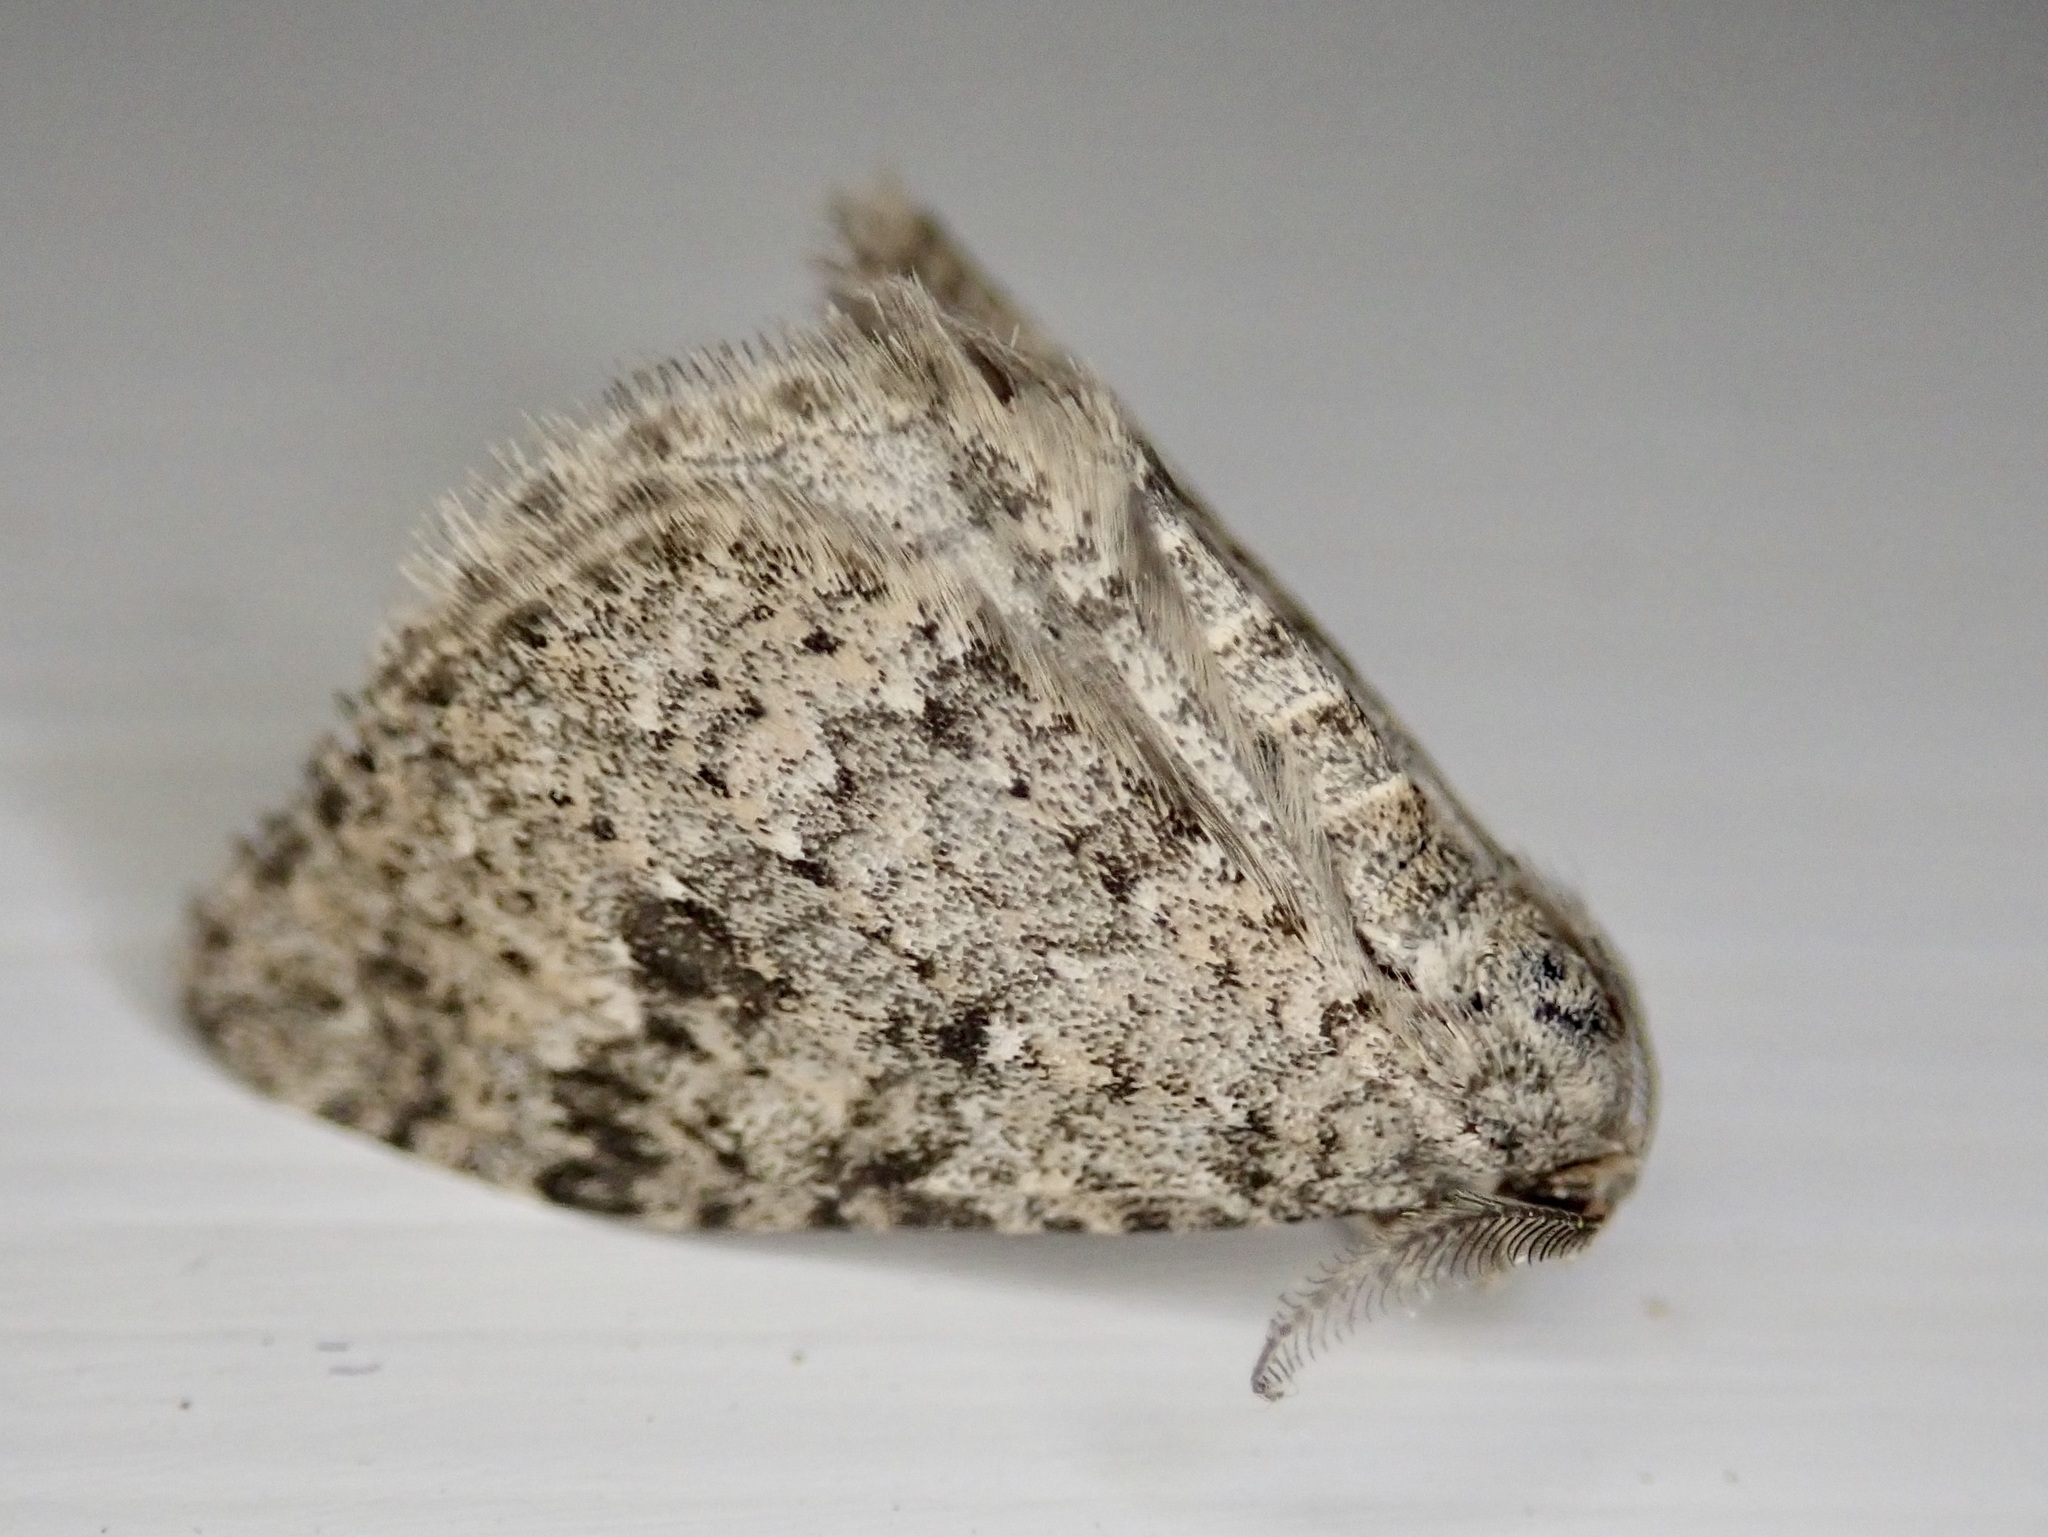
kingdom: Animalia
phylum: Arthropoda
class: Insecta
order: Lepidoptera
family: Geometridae
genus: Helastia
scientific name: Helastia corcularia
